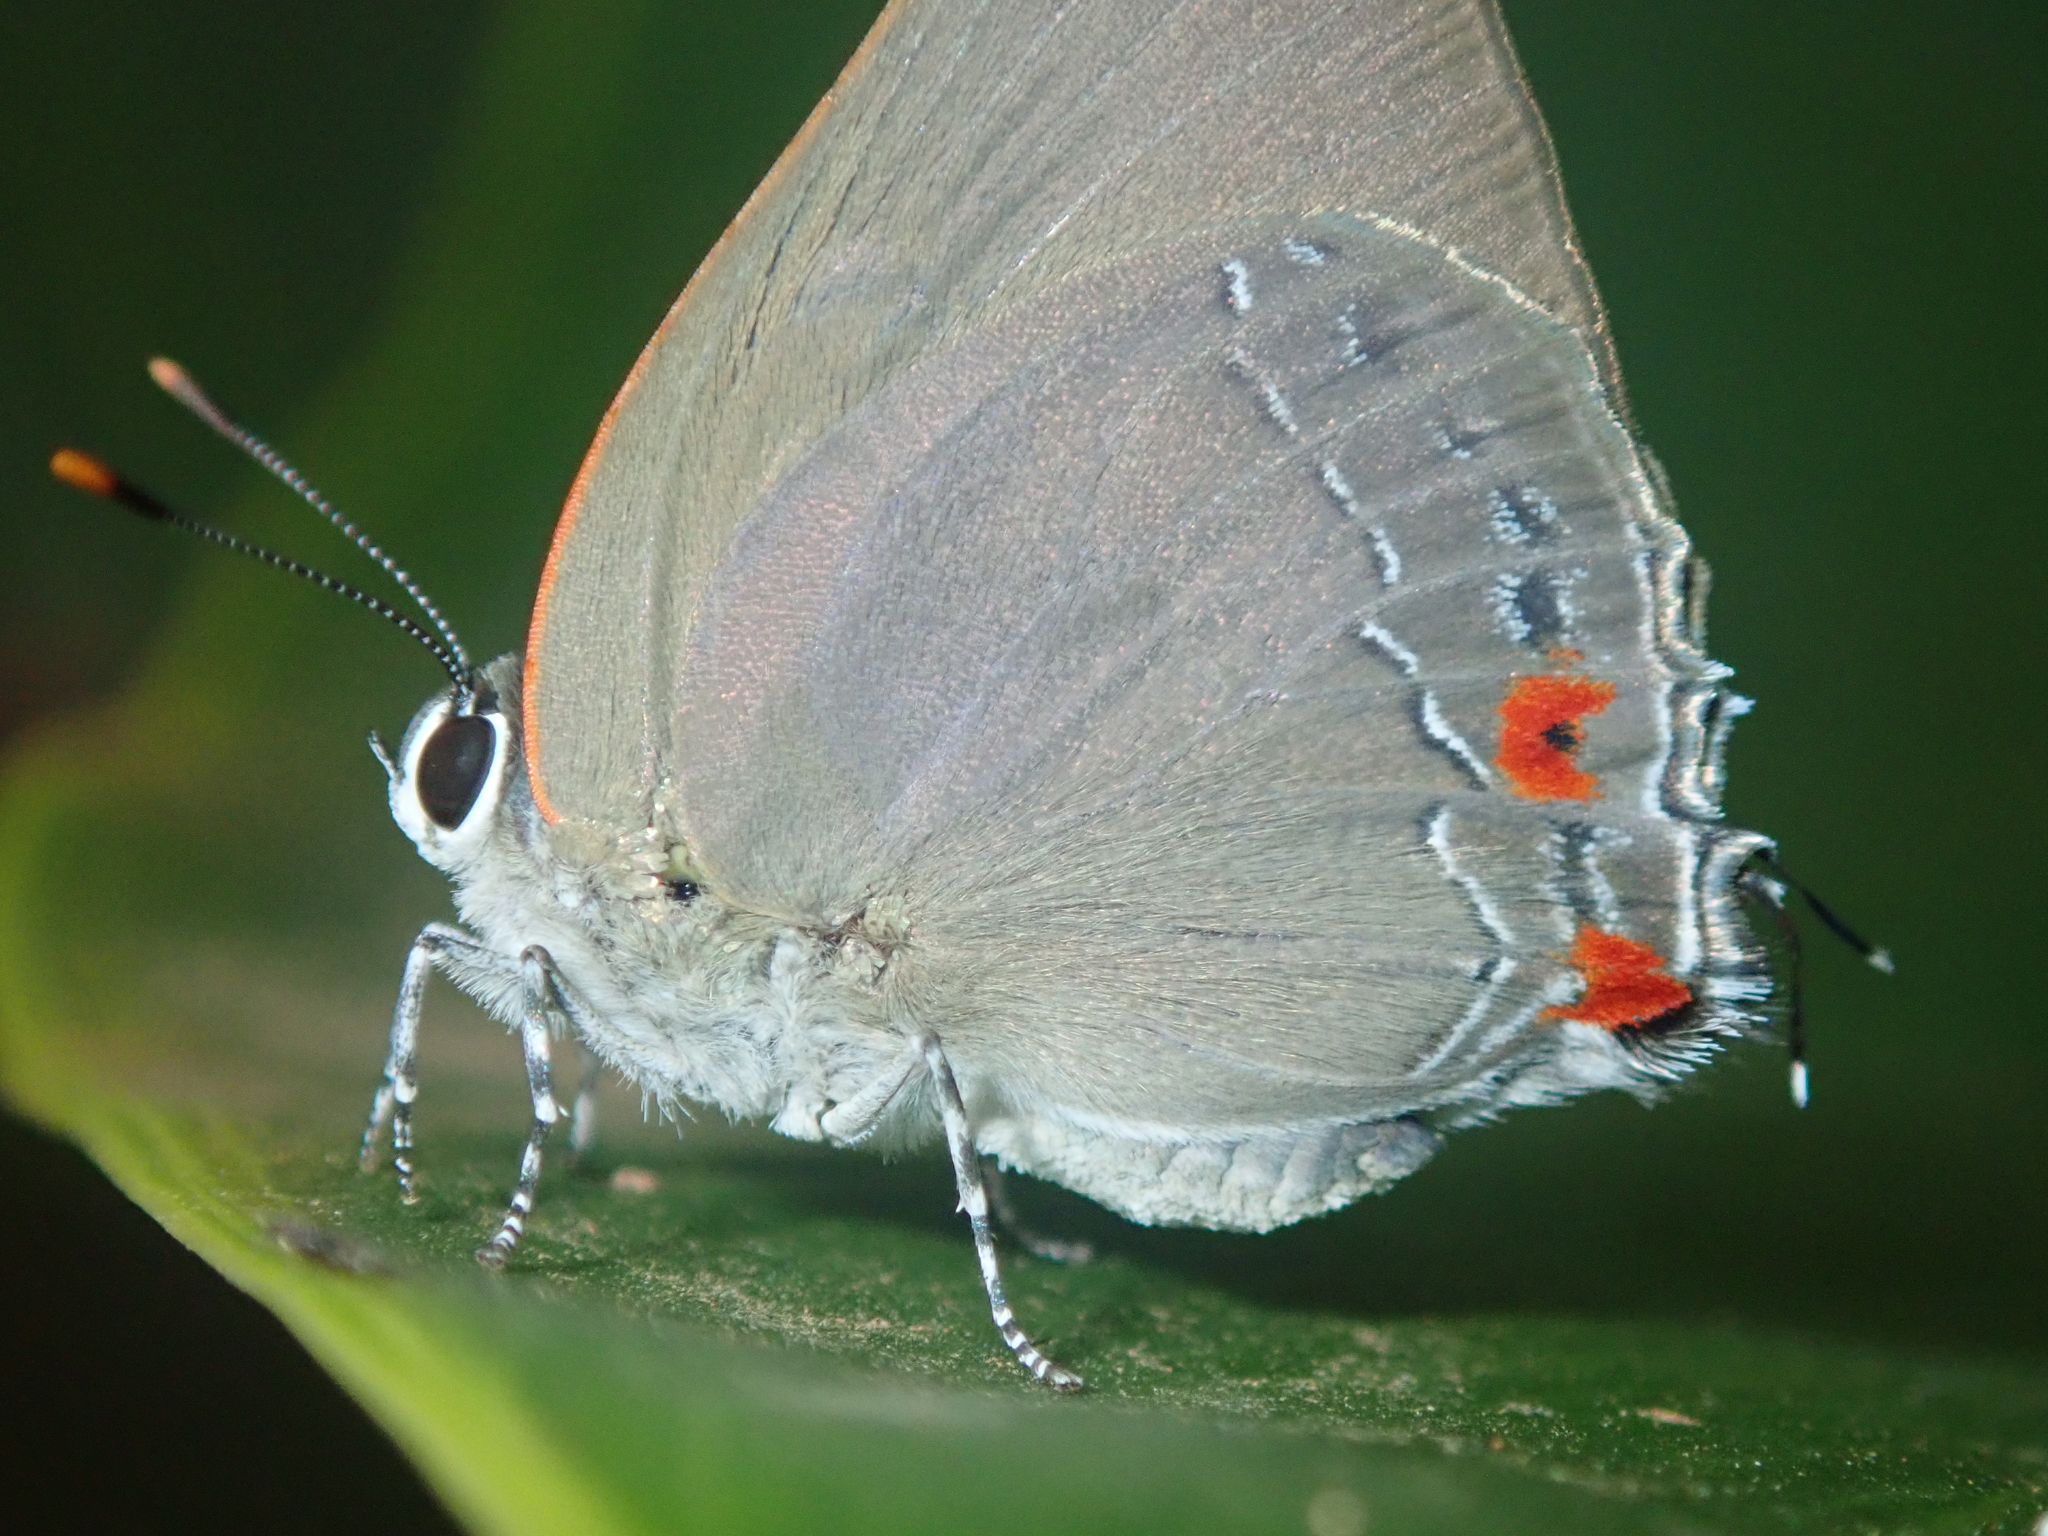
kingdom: Animalia
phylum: Arthropoda
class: Insecta
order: Lepidoptera
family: Lycaenidae
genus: Thecla
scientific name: Thecla ergina
